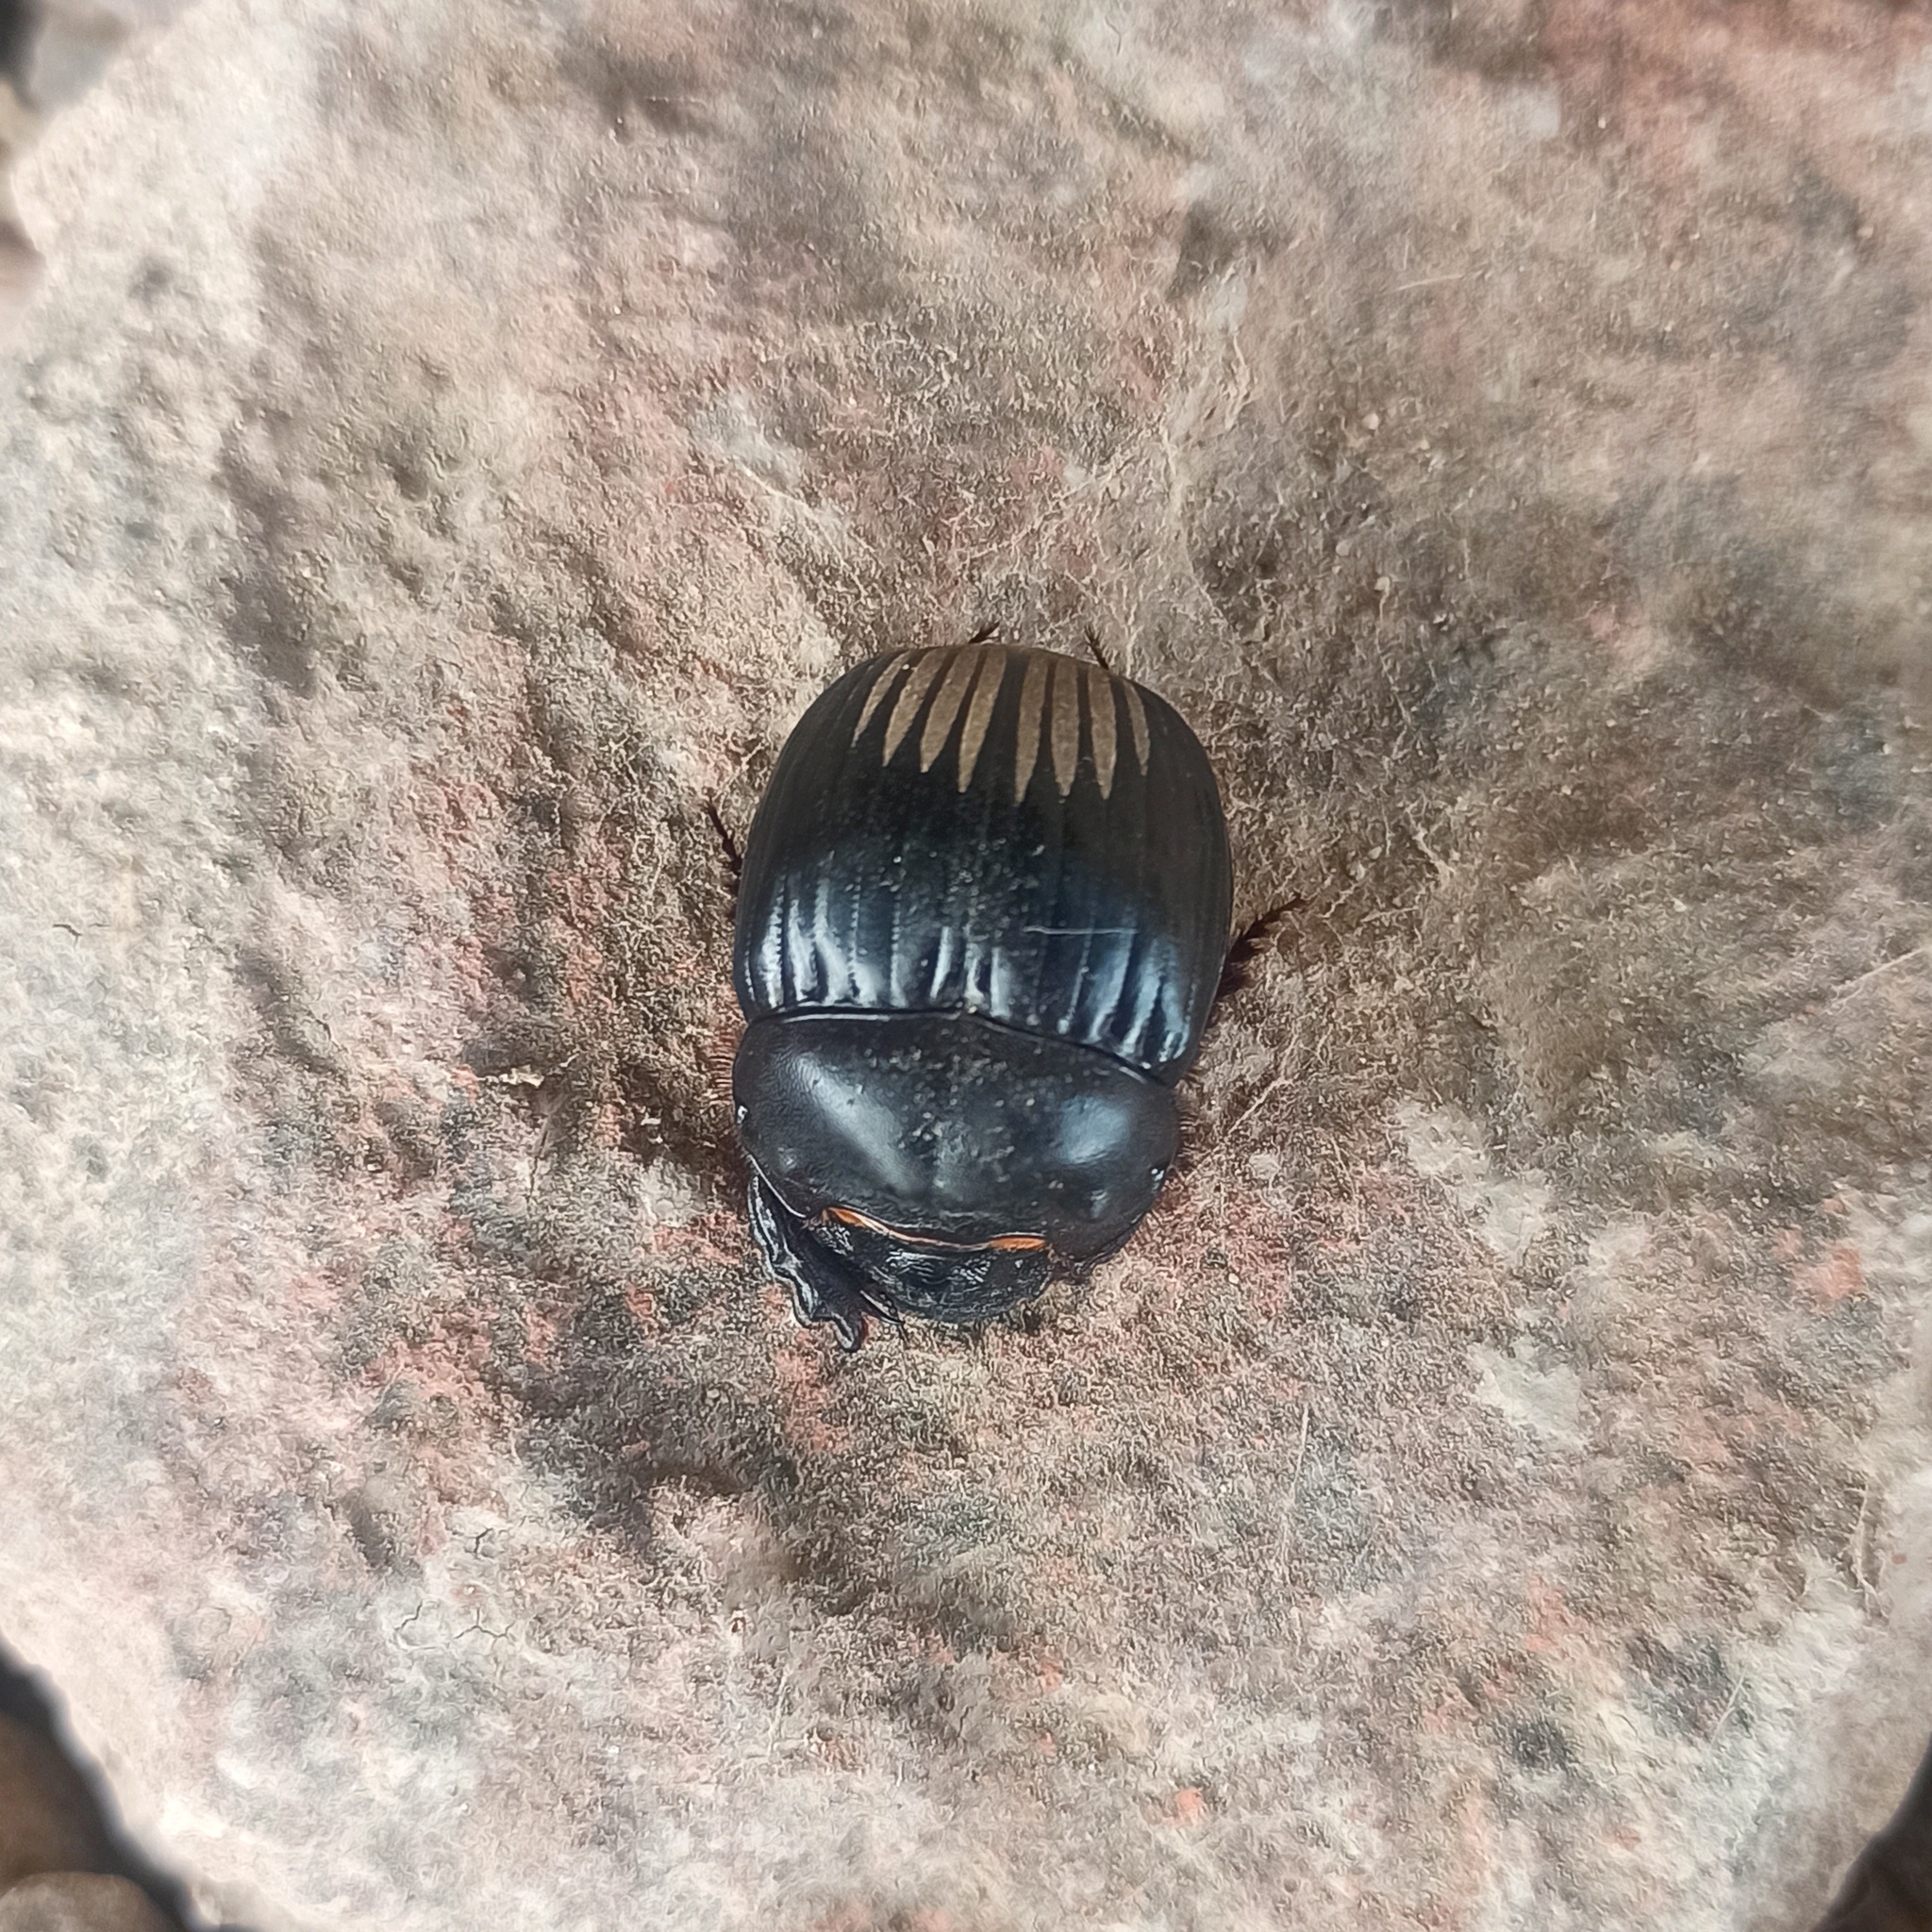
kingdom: Animalia
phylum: Arthropoda
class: Insecta
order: Coleoptera
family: Scarabaeidae
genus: Dichotomius
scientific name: Dichotomius colonicus
